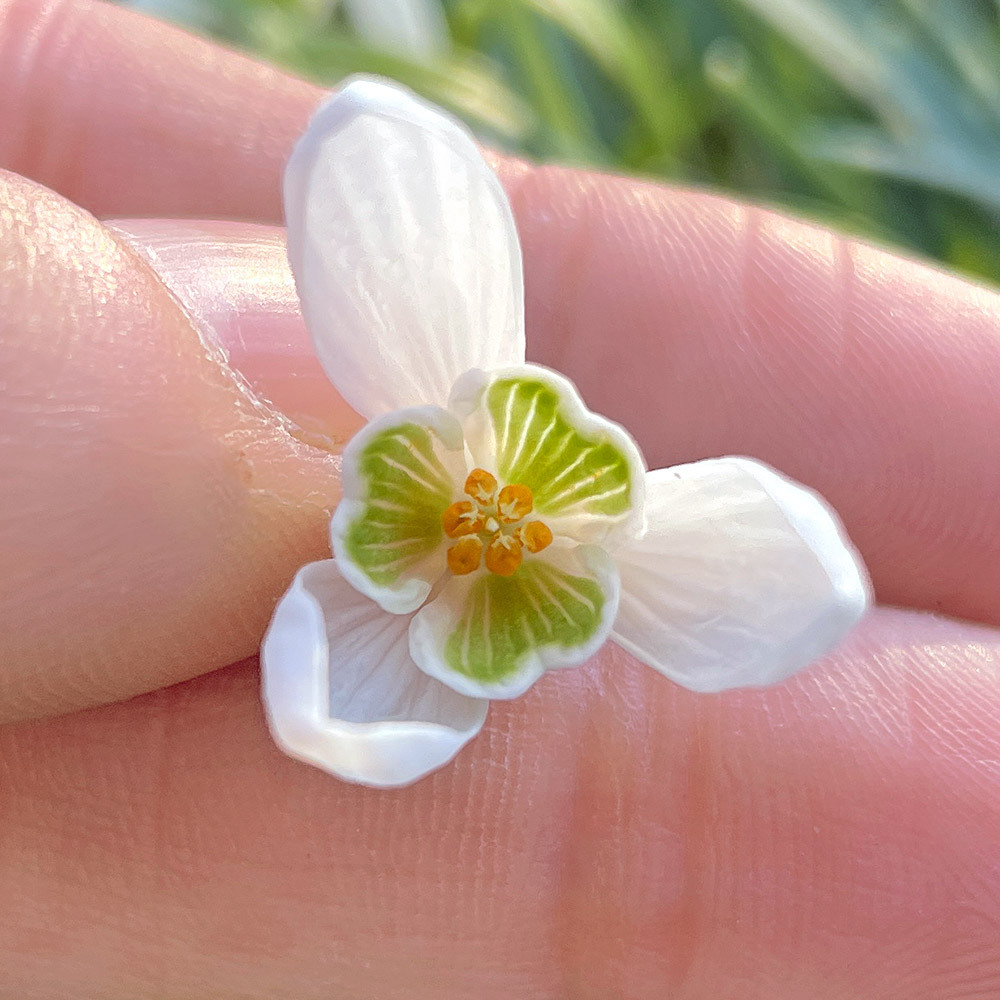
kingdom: Plantae
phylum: Tracheophyta
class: Liliopsida
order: Asparagales
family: Amaryllidaceae
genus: Galanthus
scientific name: Galanthus nivalis
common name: Snowdrop
